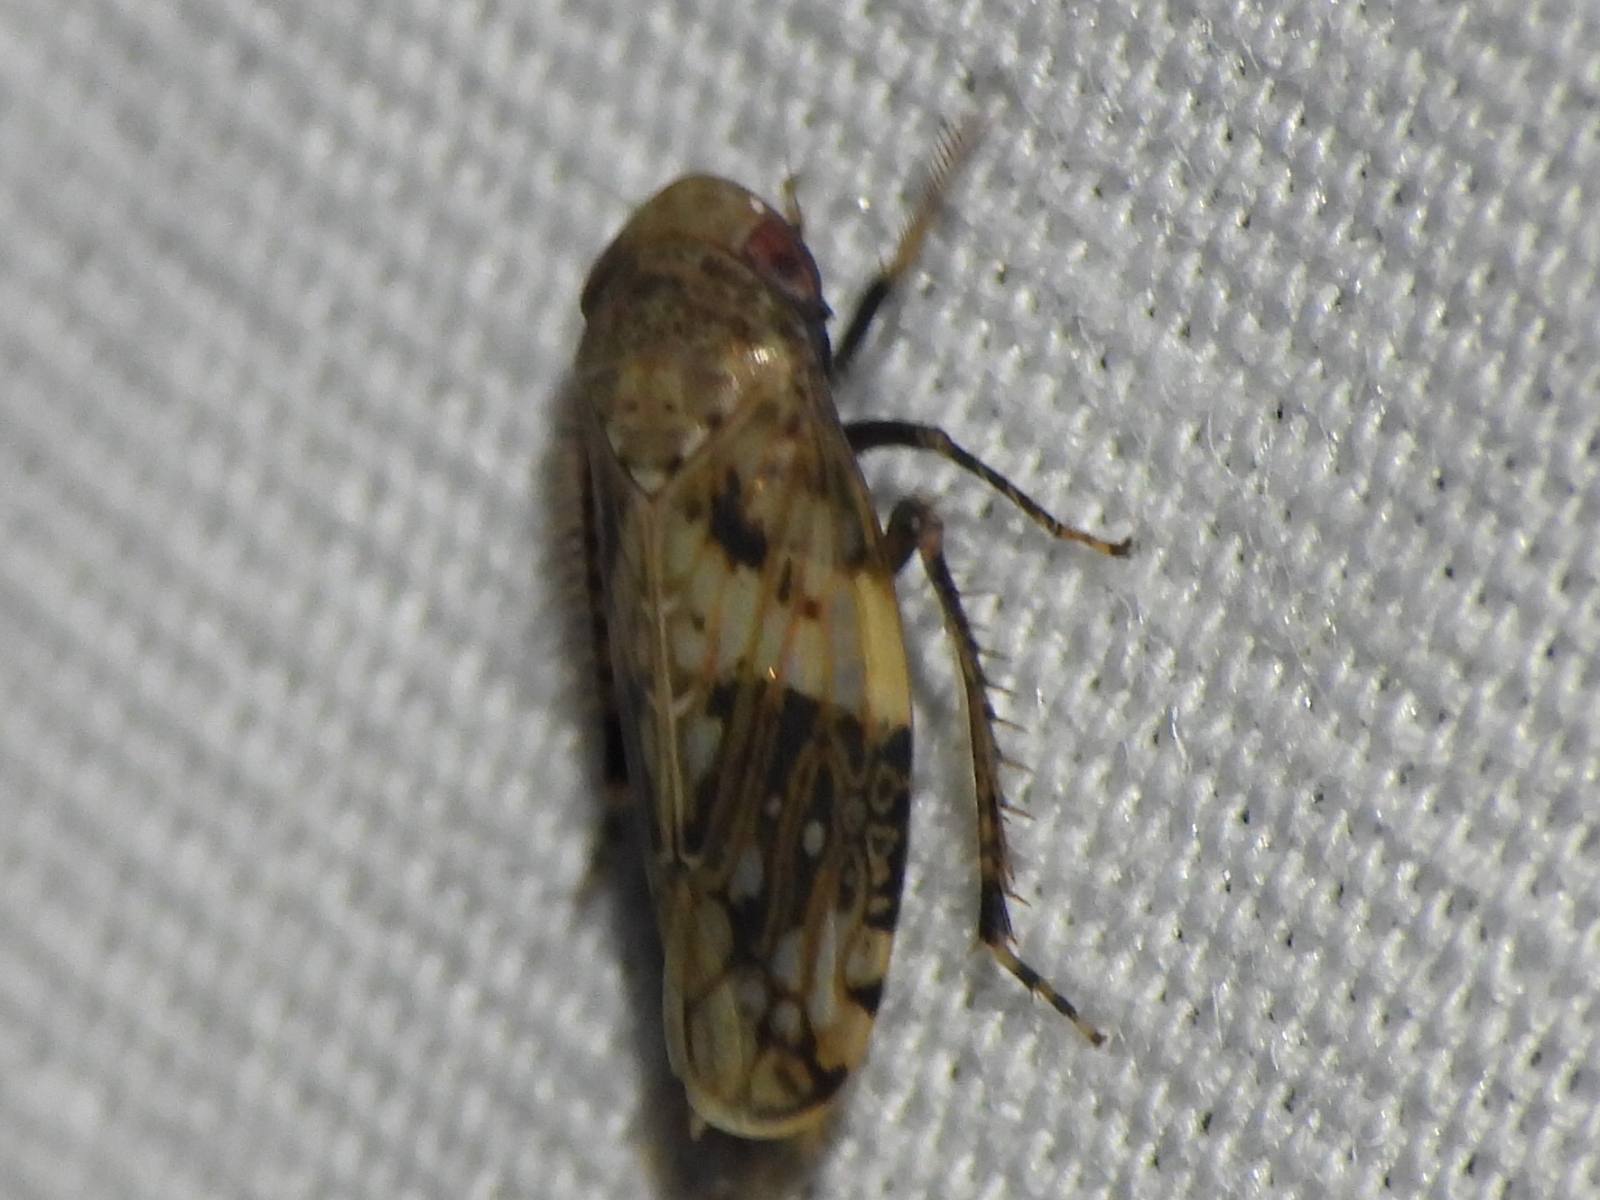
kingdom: Animalia
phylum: Arthropoda
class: Insecta
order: Hemiptera
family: Cicadellidae
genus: Menosoma
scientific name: Menosoma cinctum
